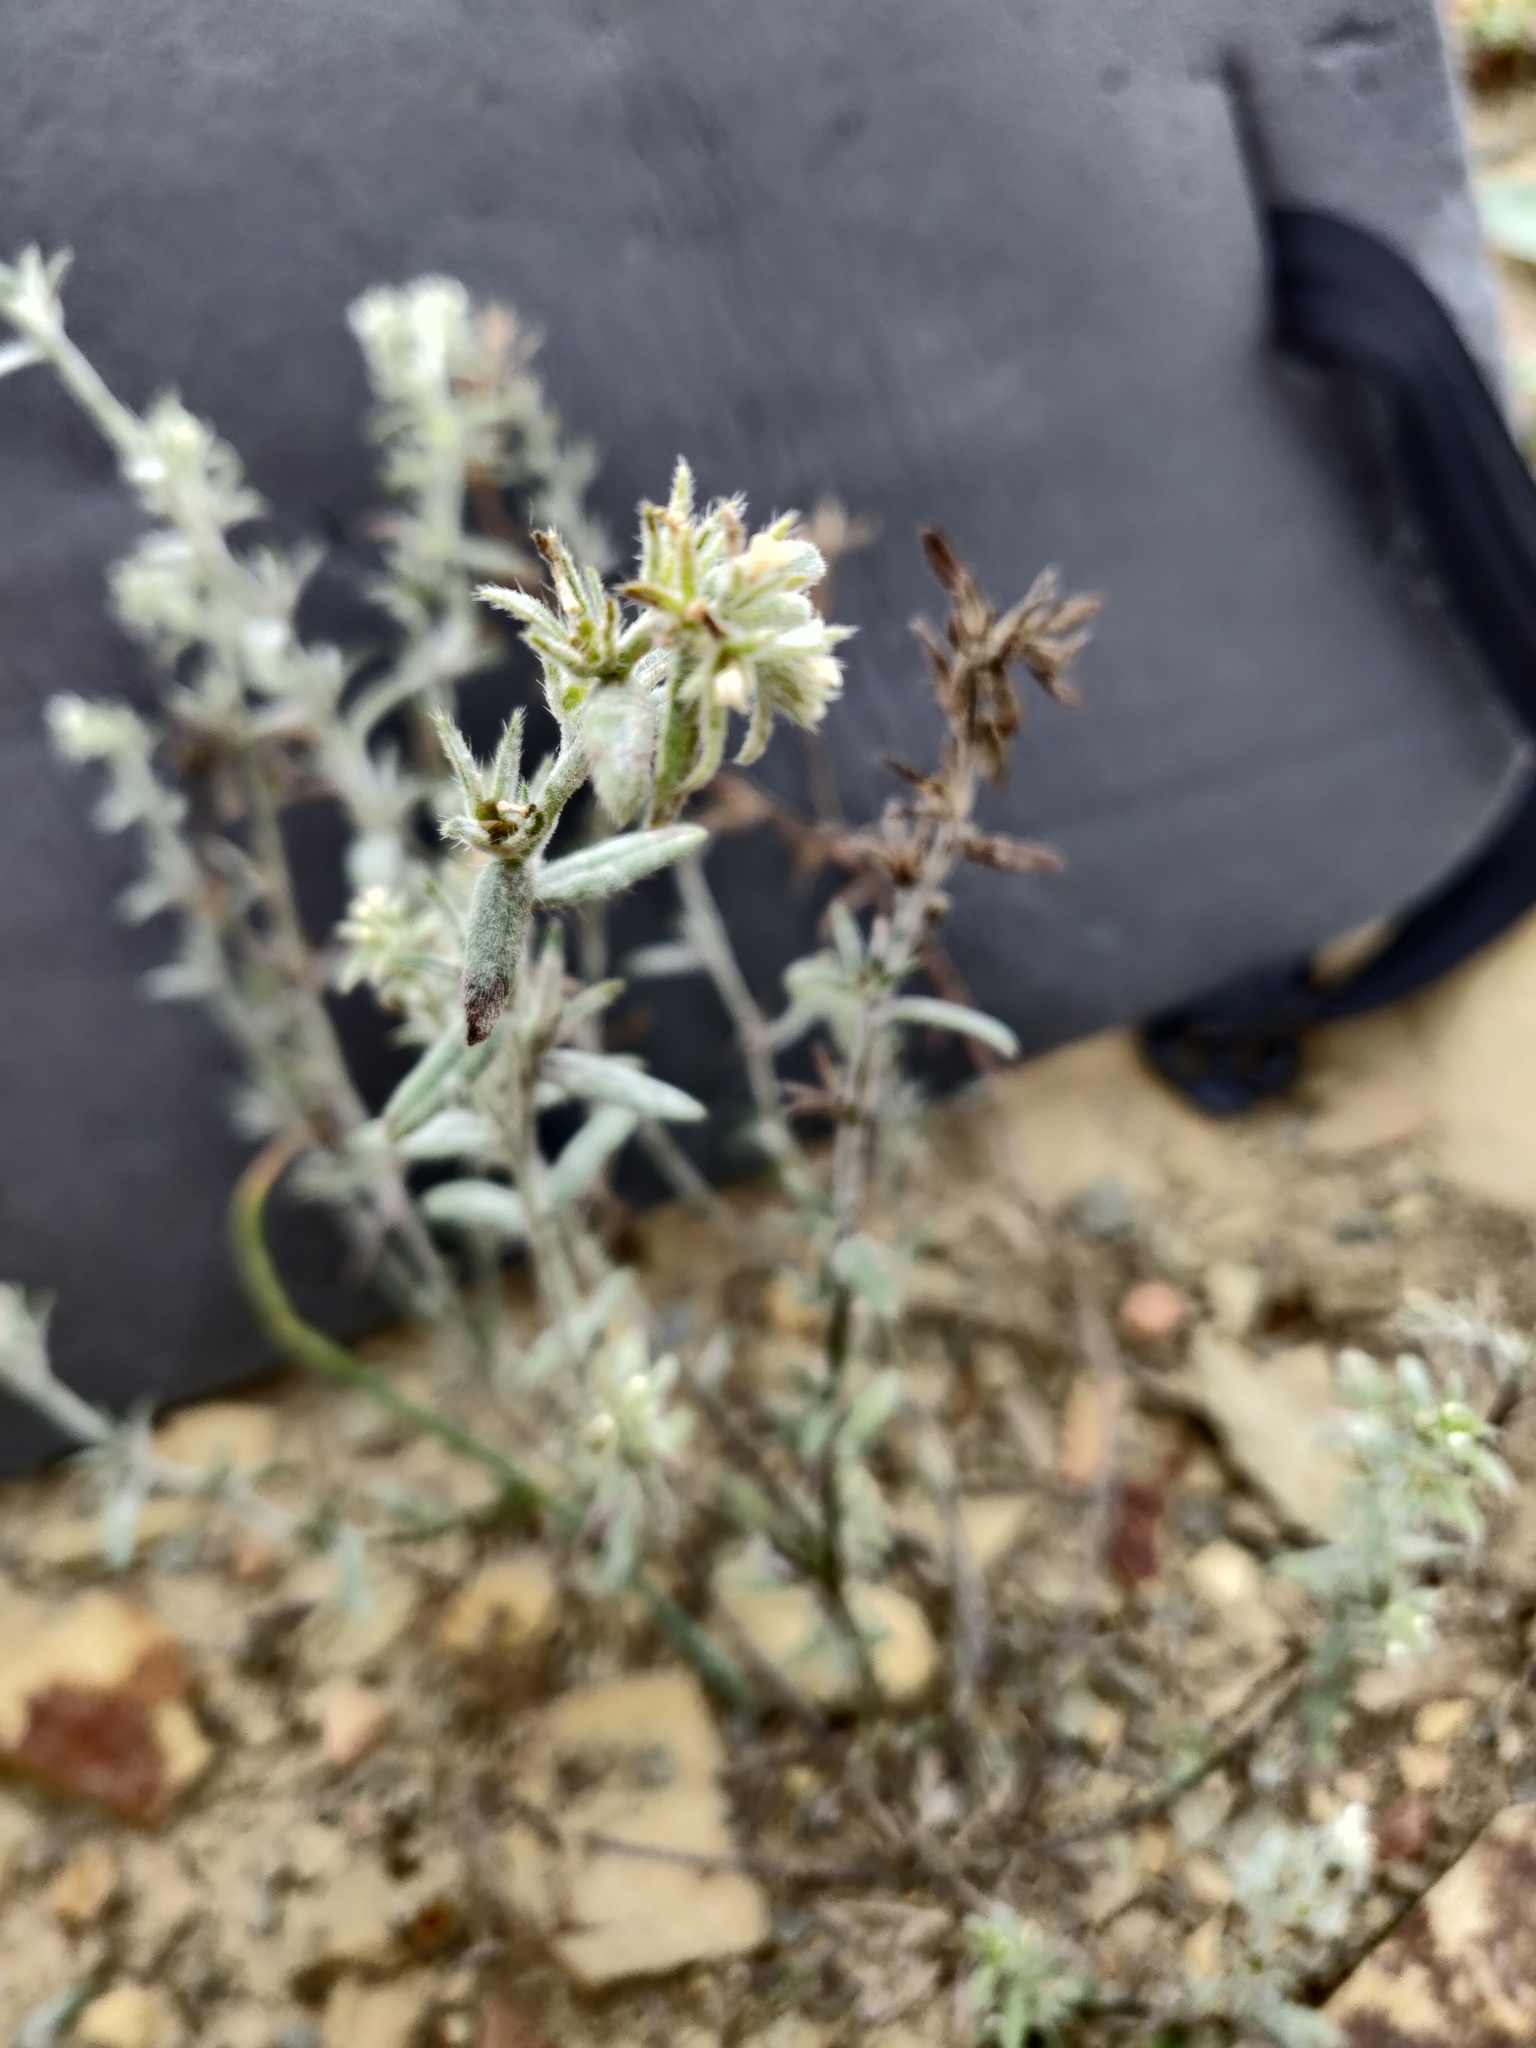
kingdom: Plantae
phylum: Tracheophyta
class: Magnoliopsida
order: Boraginales
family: Boraginaceae
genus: Buglossoides
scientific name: Buglossoides arvensis
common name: Corn gromwell
